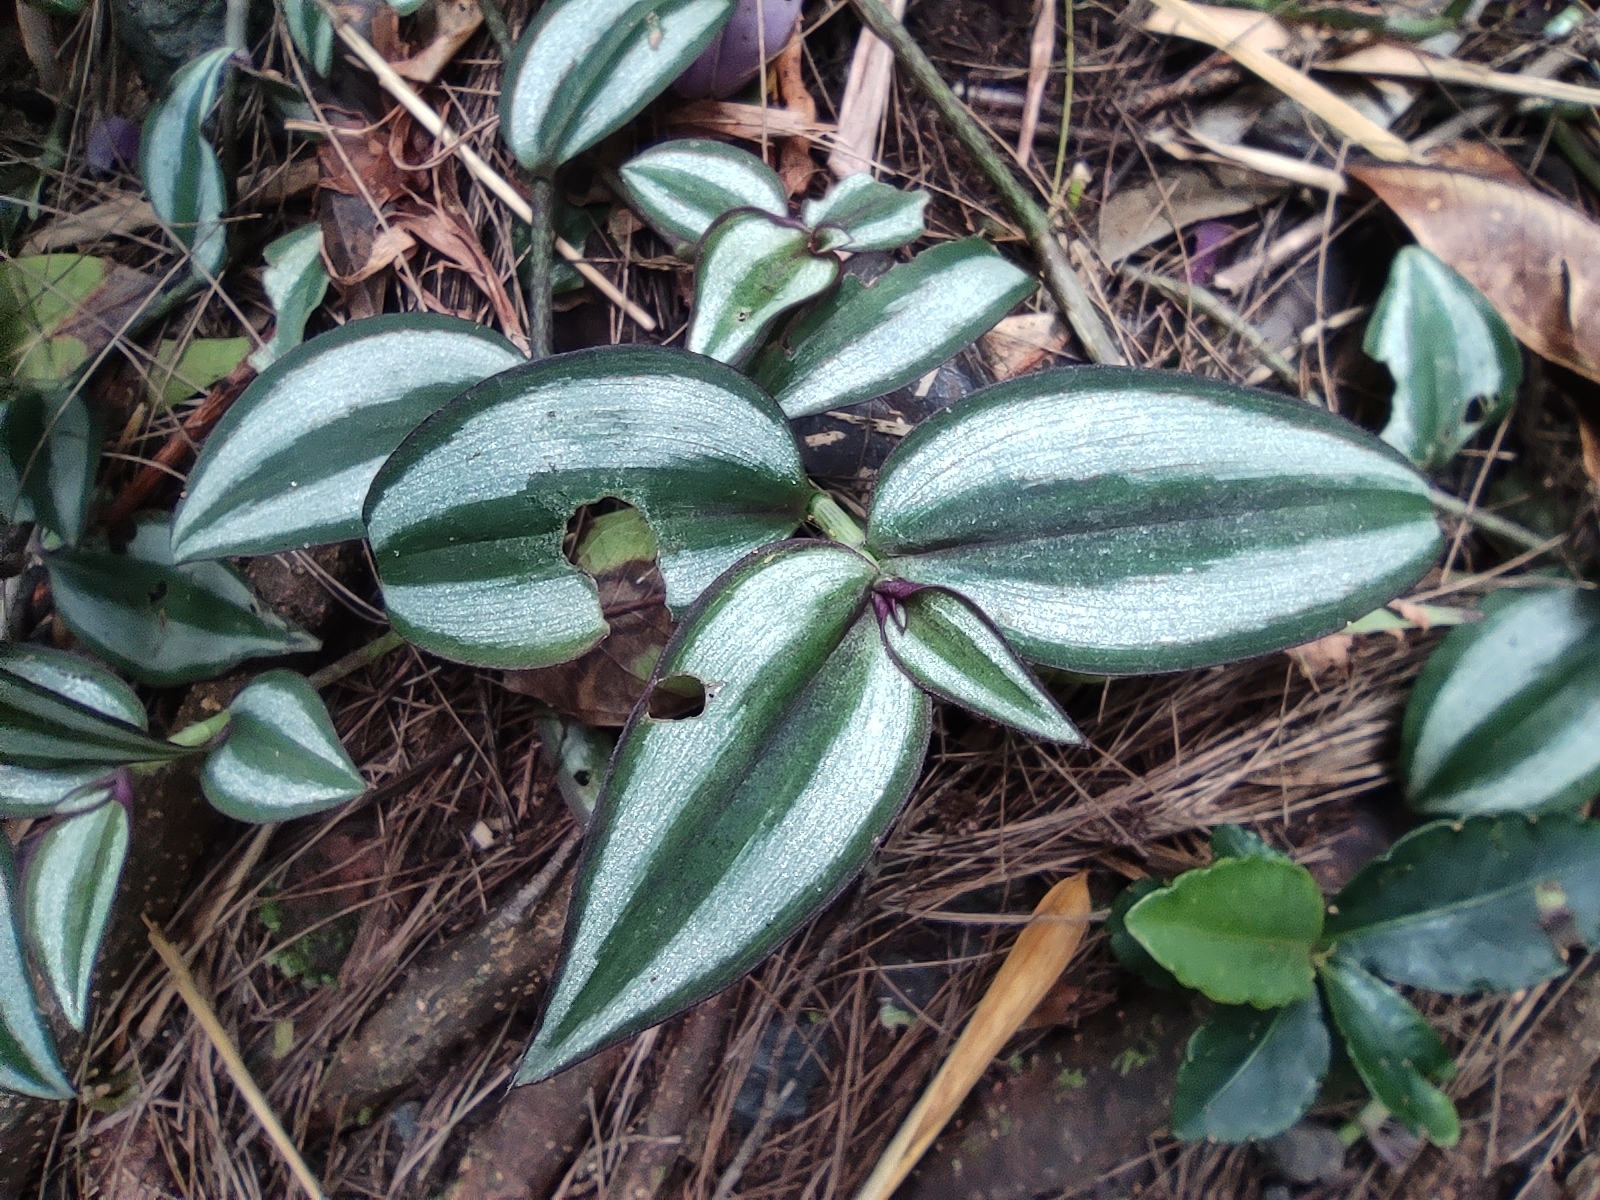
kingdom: Plantae
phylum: Tracheophyta
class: Liliopsida
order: Commelinales
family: Commelinaceae
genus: Tradescantia
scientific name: Tradescantia zebrina
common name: Inchplant
